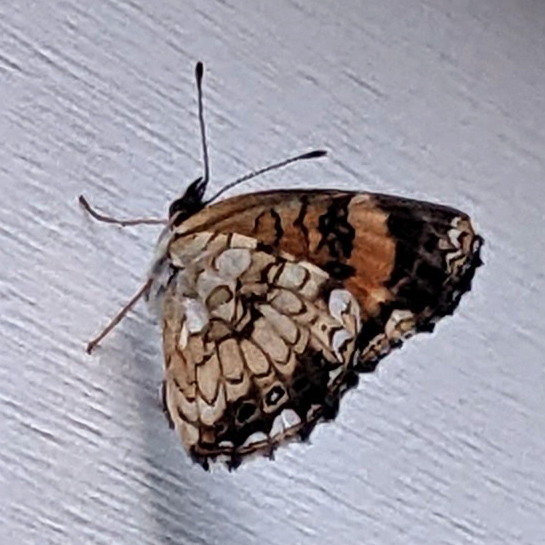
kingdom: Animalia
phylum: Arthropoda
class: Insecta
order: Lepidoptera
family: Nymphalidae
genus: Chlosyne
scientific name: Chlosyne nycteis
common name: Silvery checkerspot
